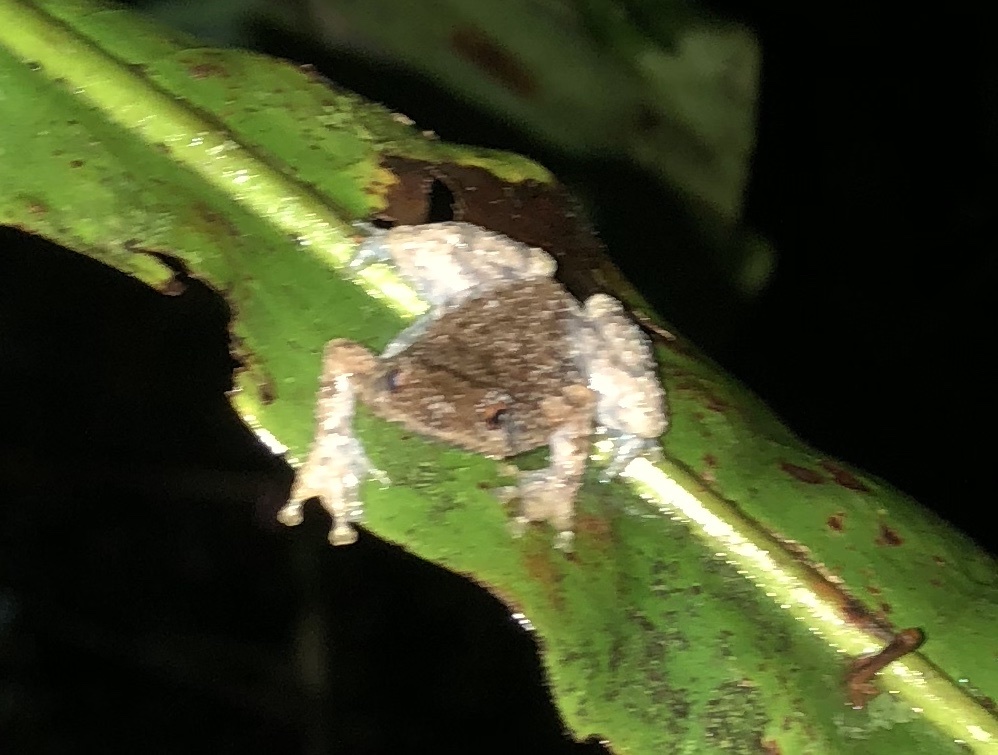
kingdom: Animalia
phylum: Chordata
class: Amphibia
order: Anura
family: Microhylidae
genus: Metaphrynella
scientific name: Metaphrynella sundana
